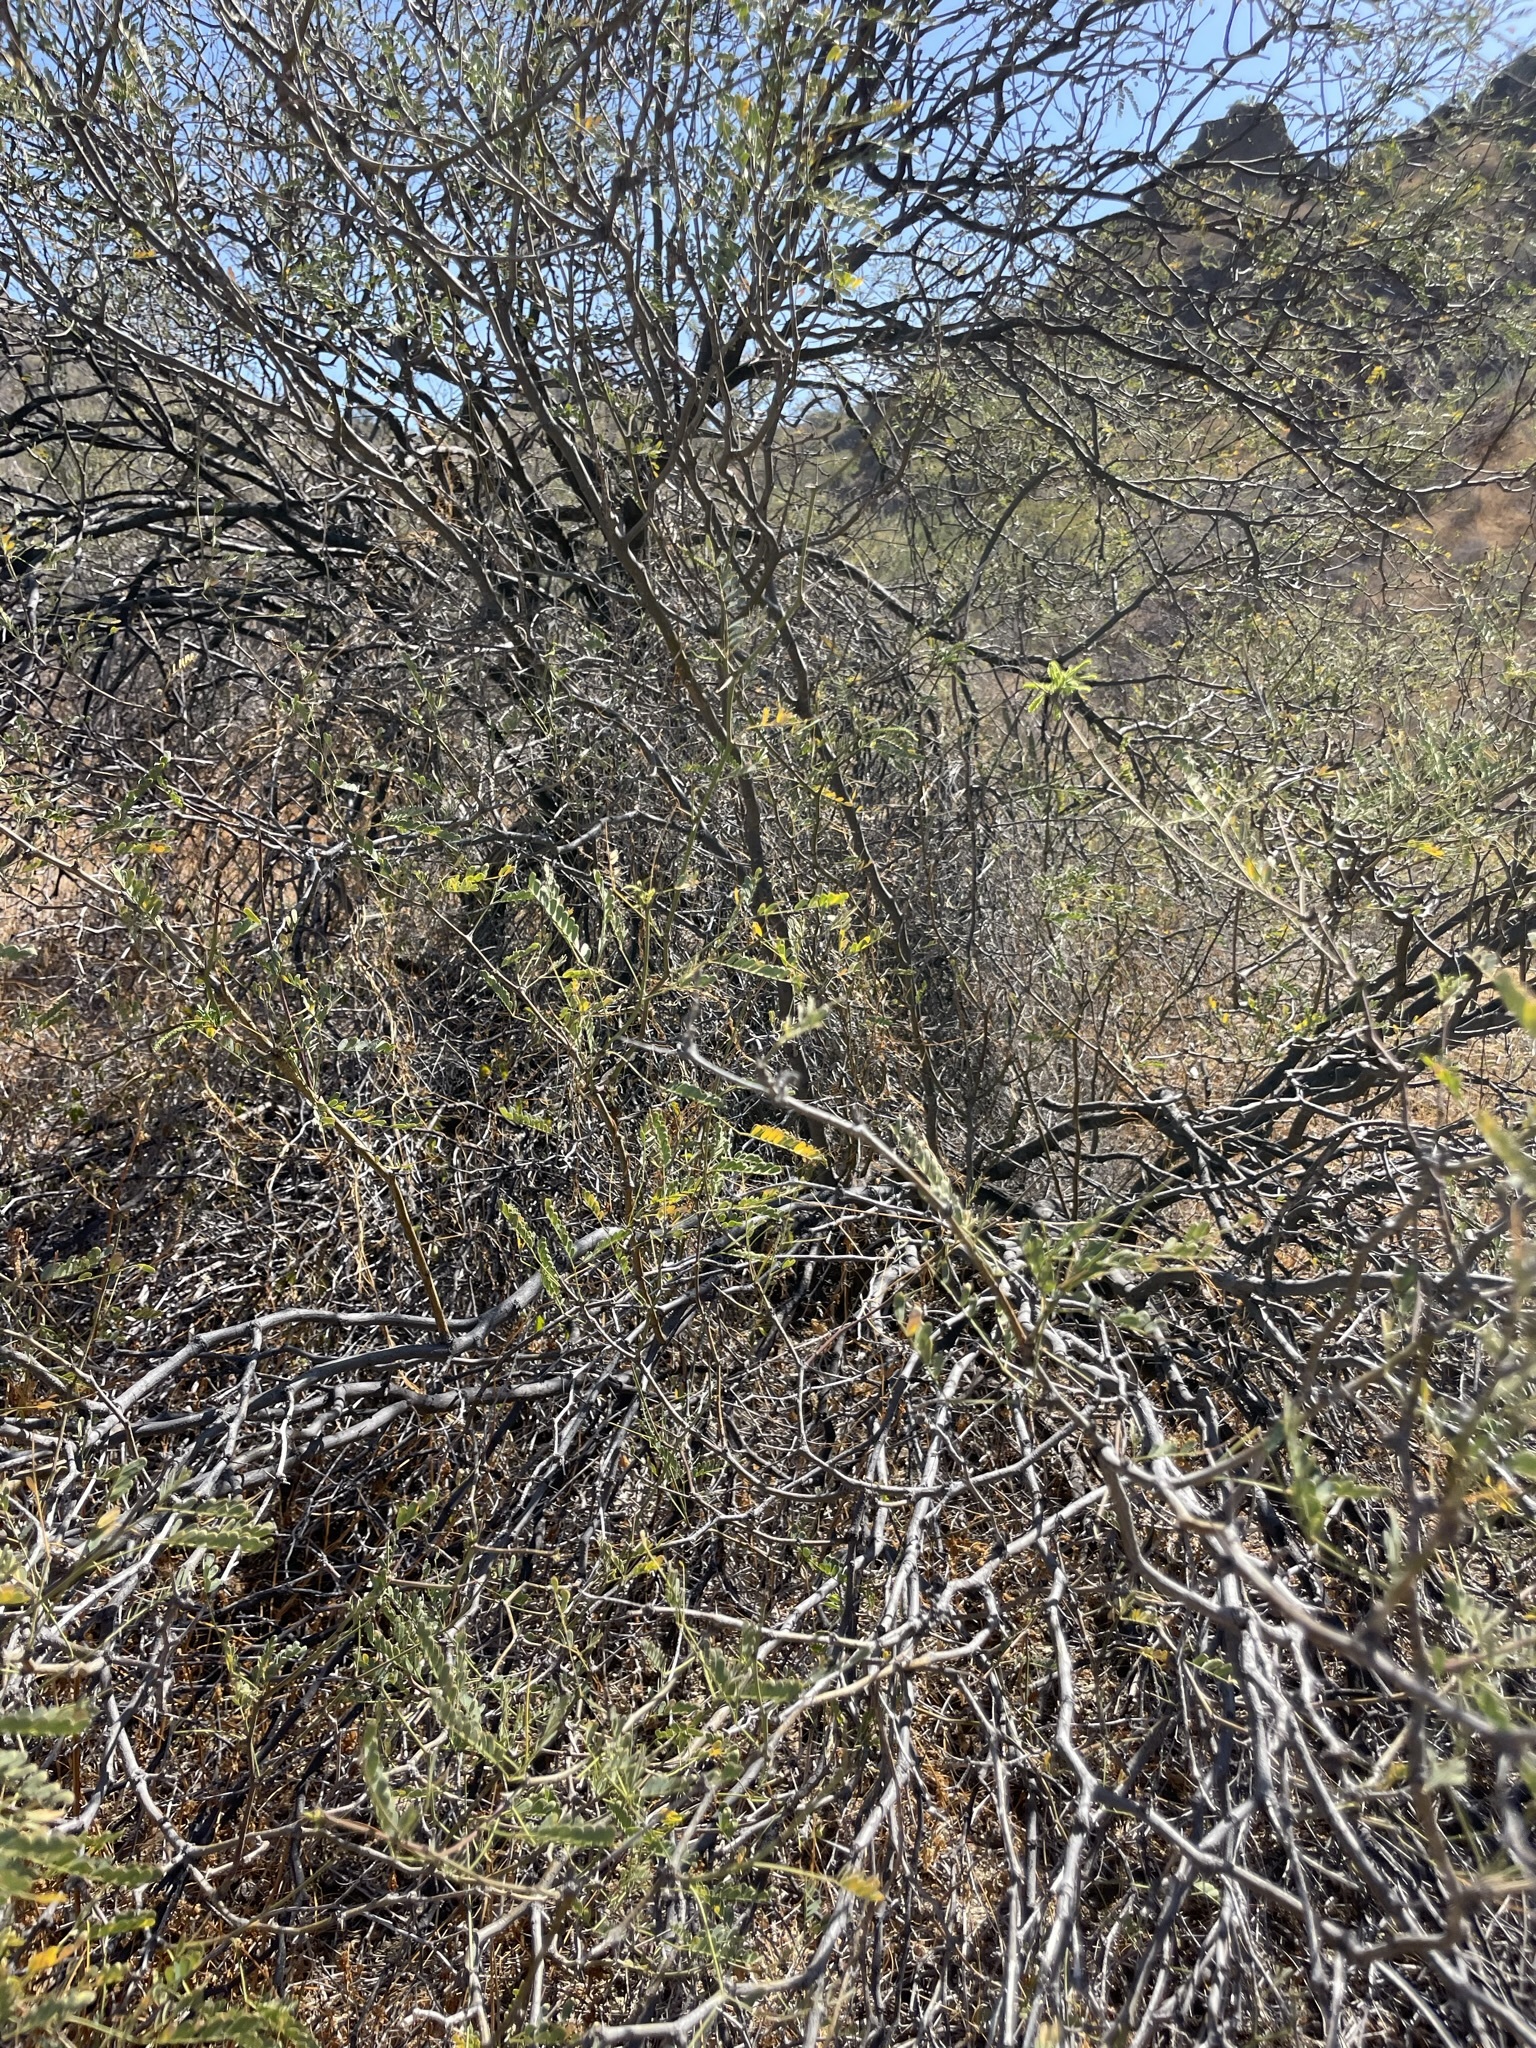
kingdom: Plantae
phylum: Tracheophyta
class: Magnoliopsida
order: Fabales
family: Fabaceae
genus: Prosopis
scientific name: Prosopis articulata
